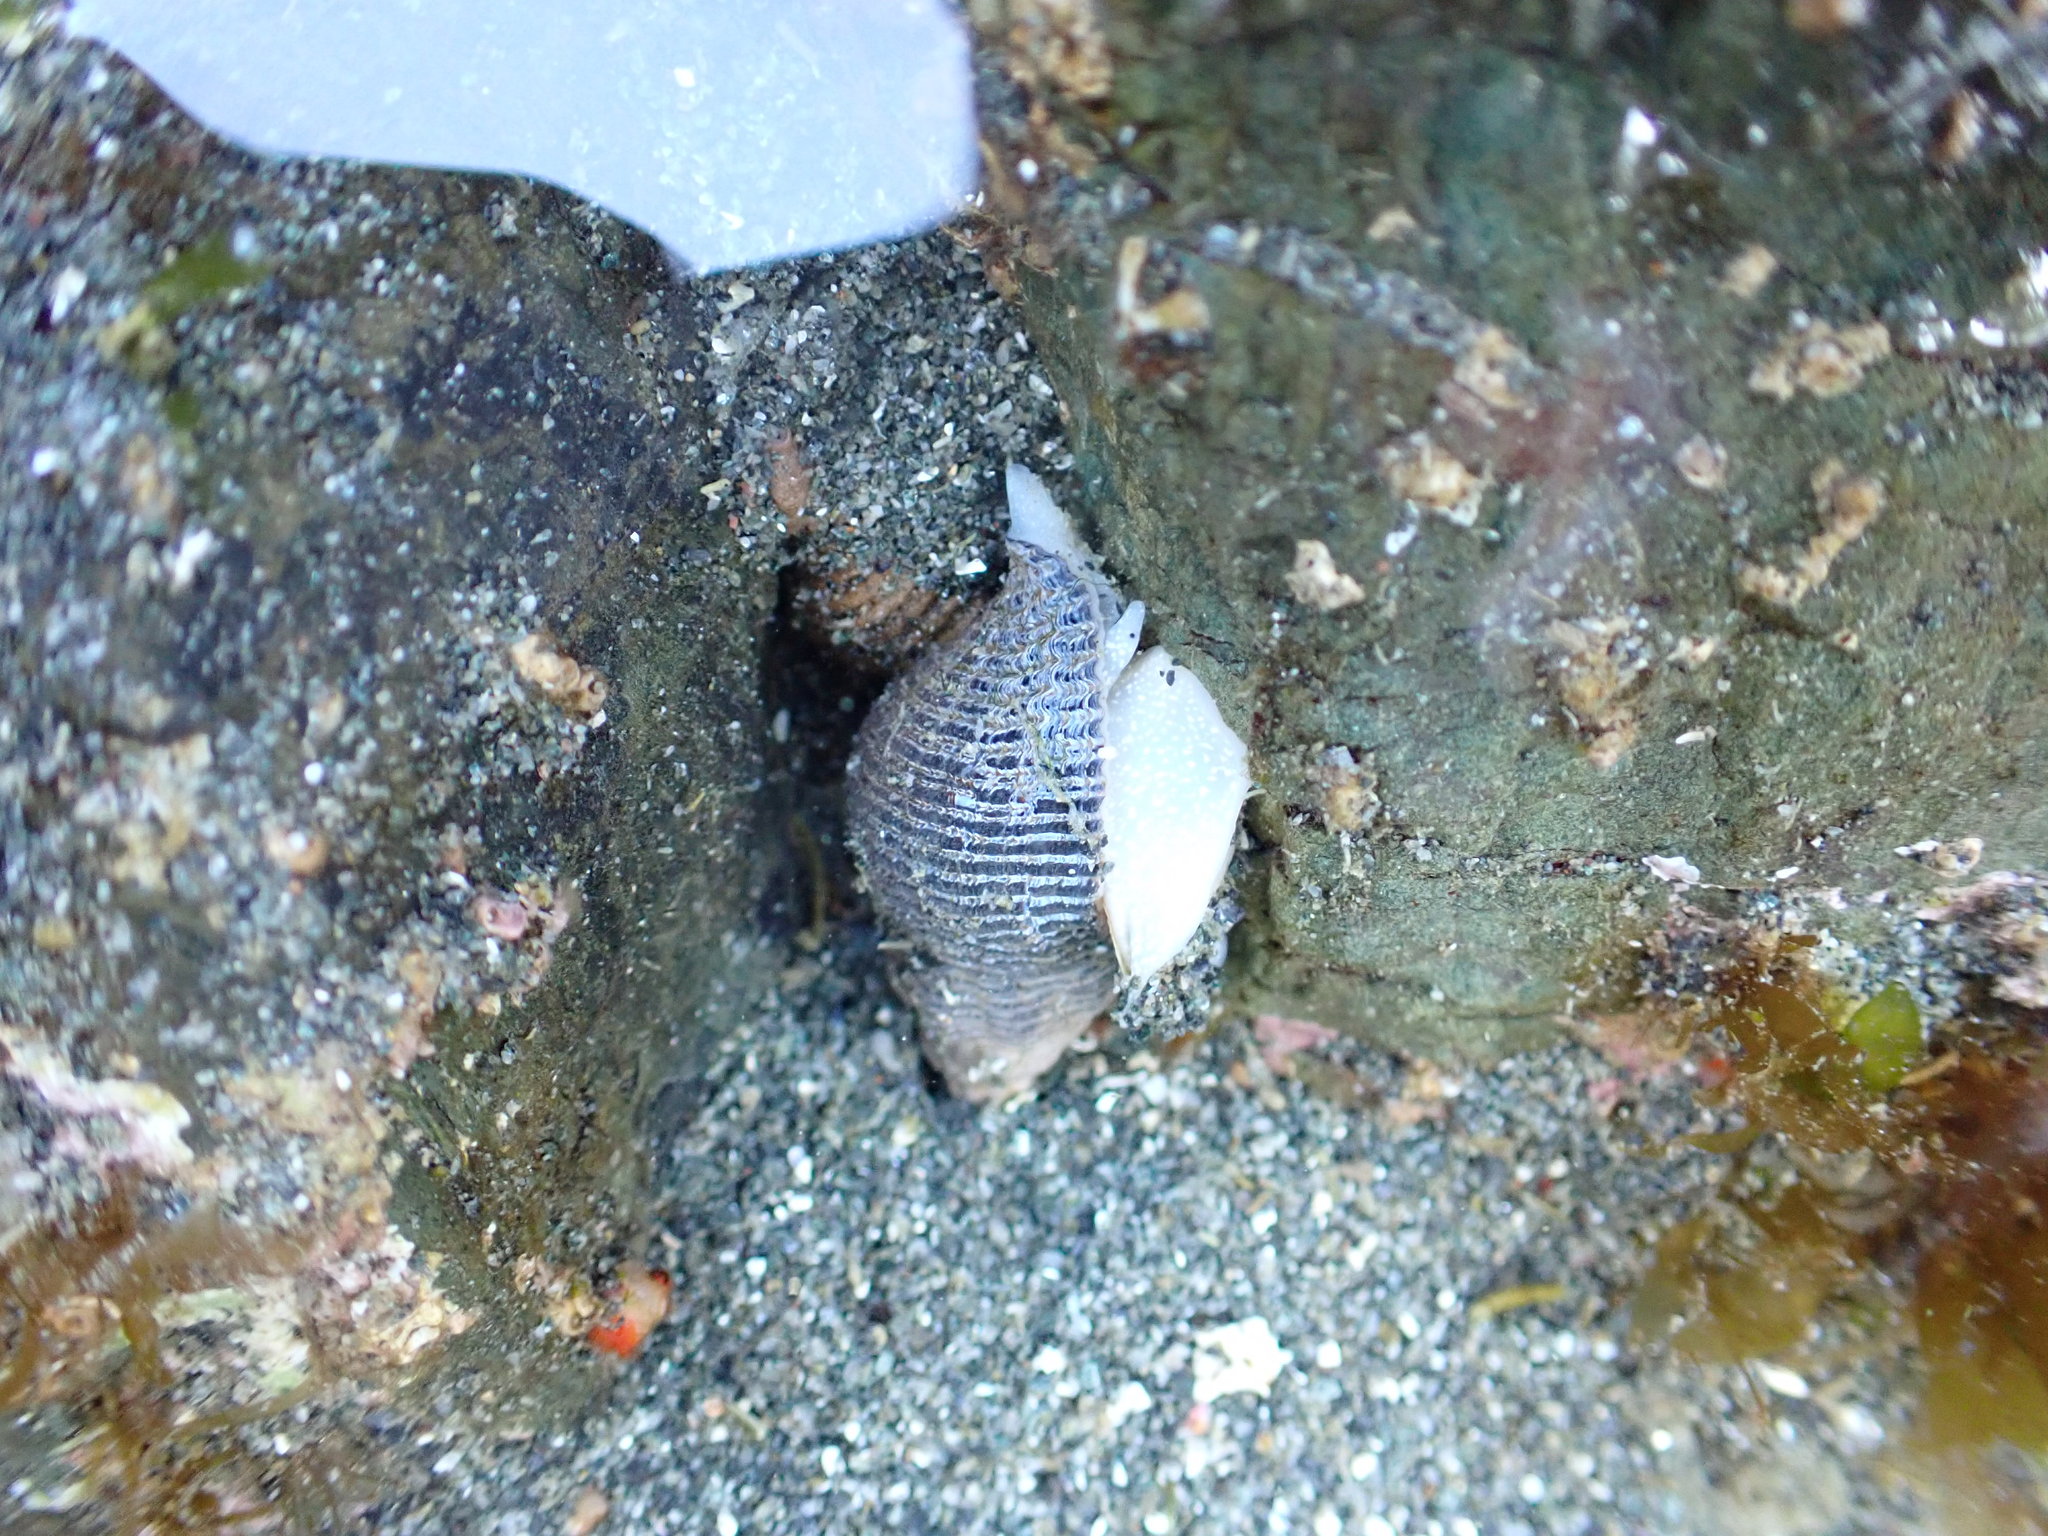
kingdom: Animalia
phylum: Mollusca
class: Gastropoda
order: Neogastropoda
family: Tudiclidae
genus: Lirabuccinum
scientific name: Lirabuccinum dirum
